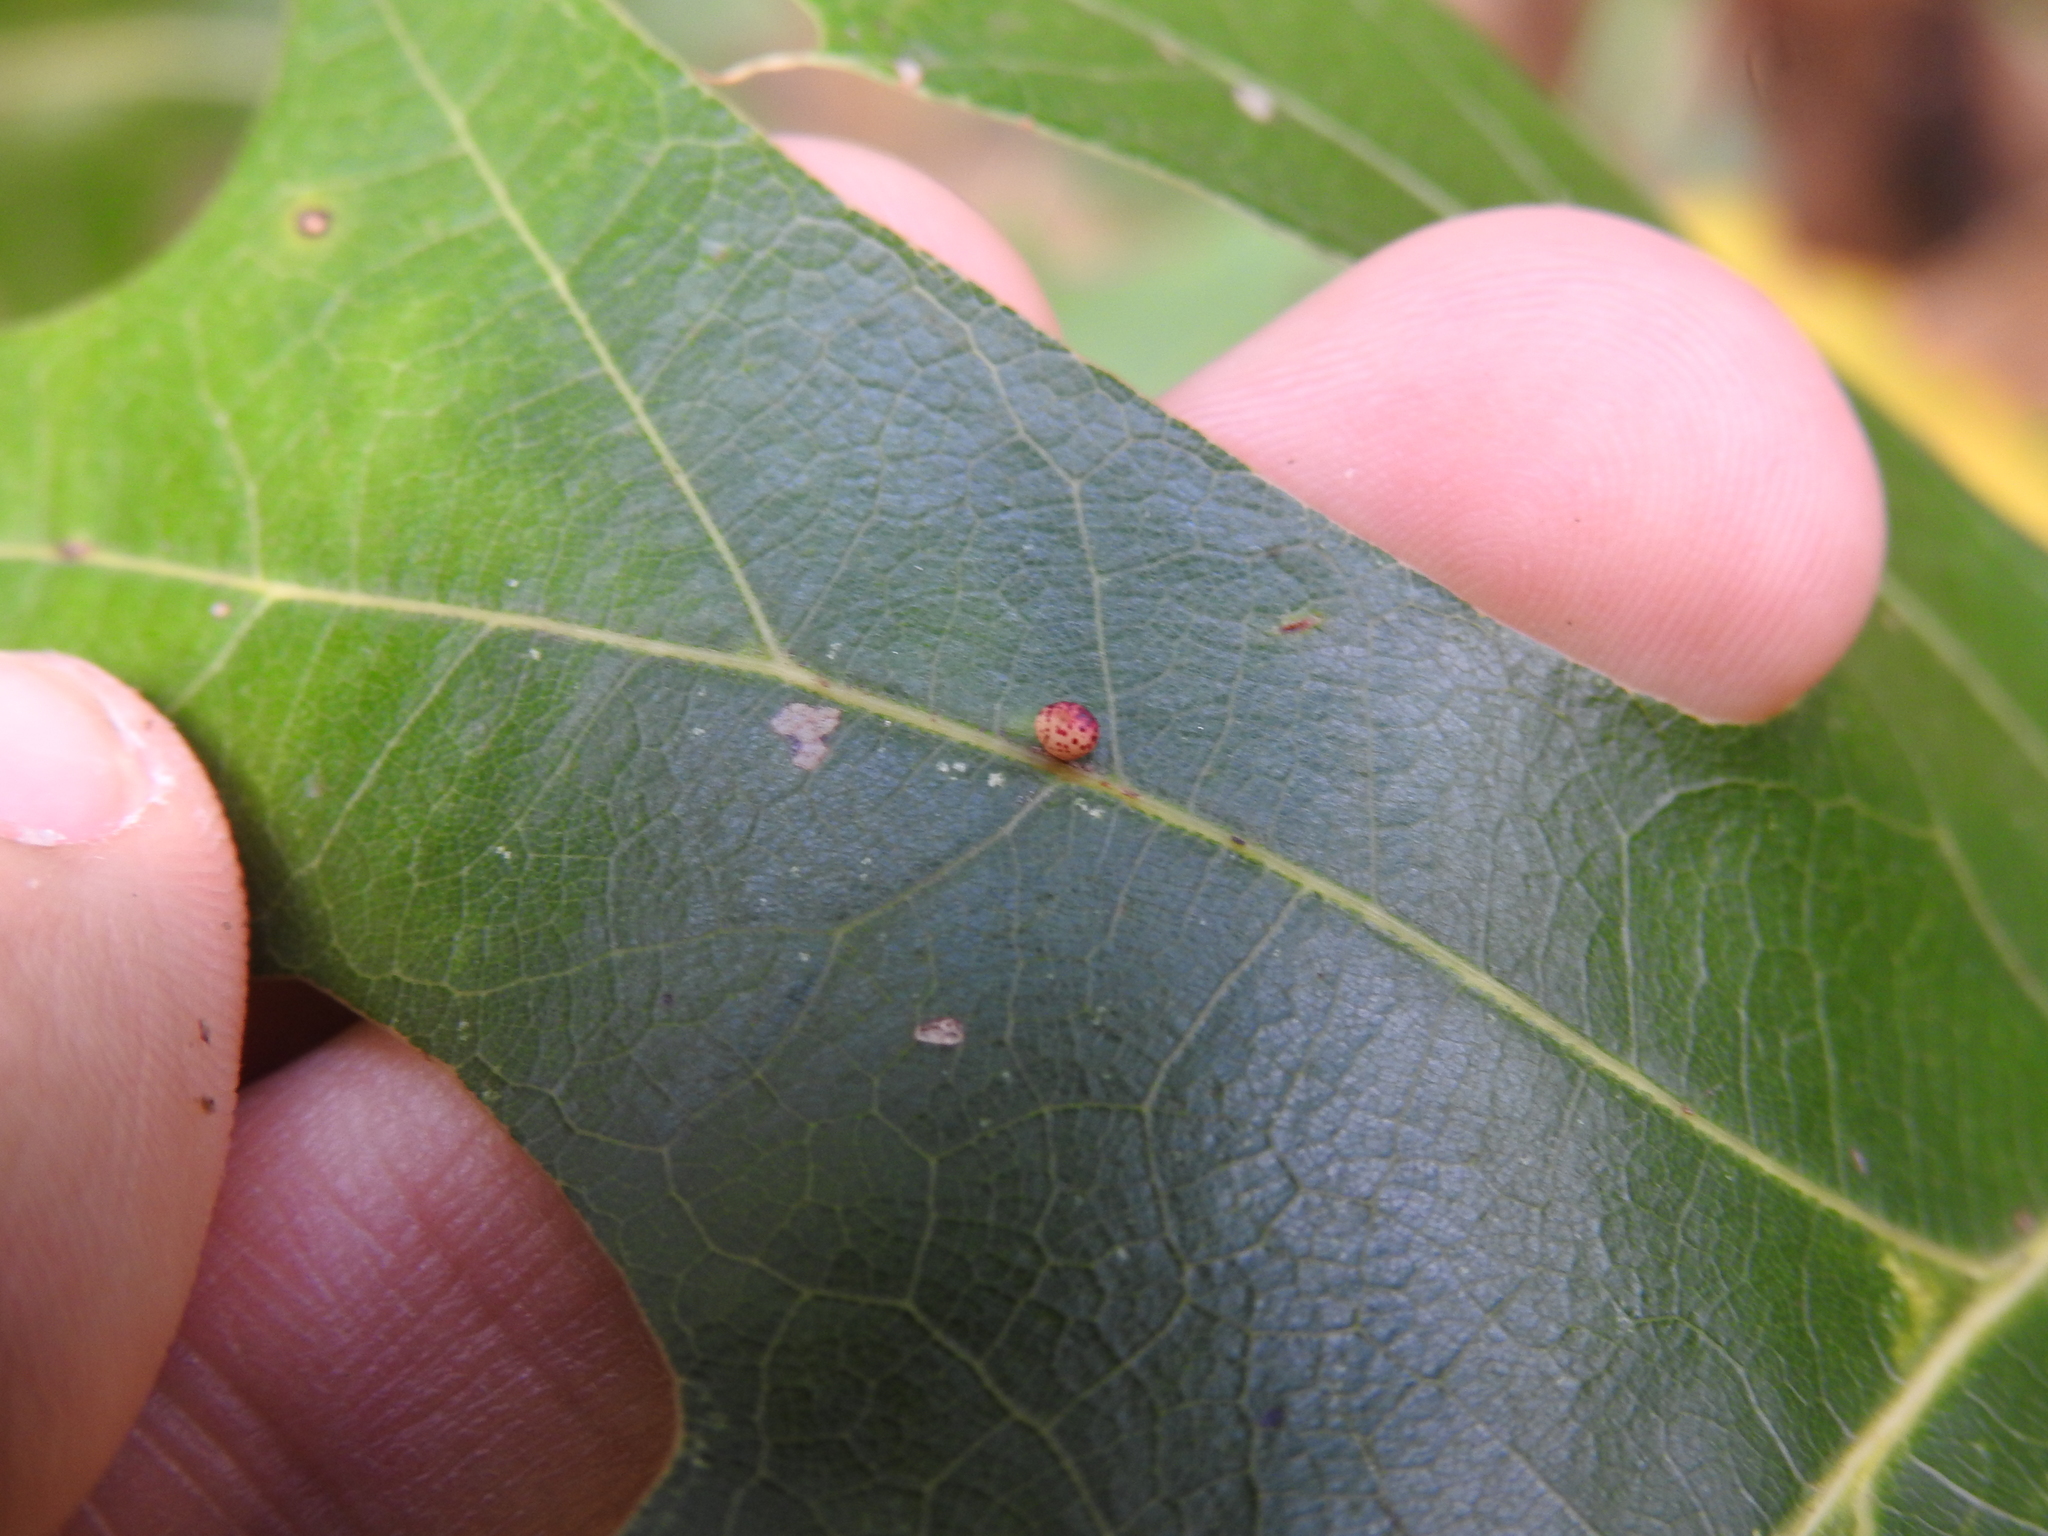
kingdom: Animalia
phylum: Arthropoda
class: Insecta
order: Hymenoptera
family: Cynipidae
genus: Zopheroteras
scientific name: Zopheroteras
